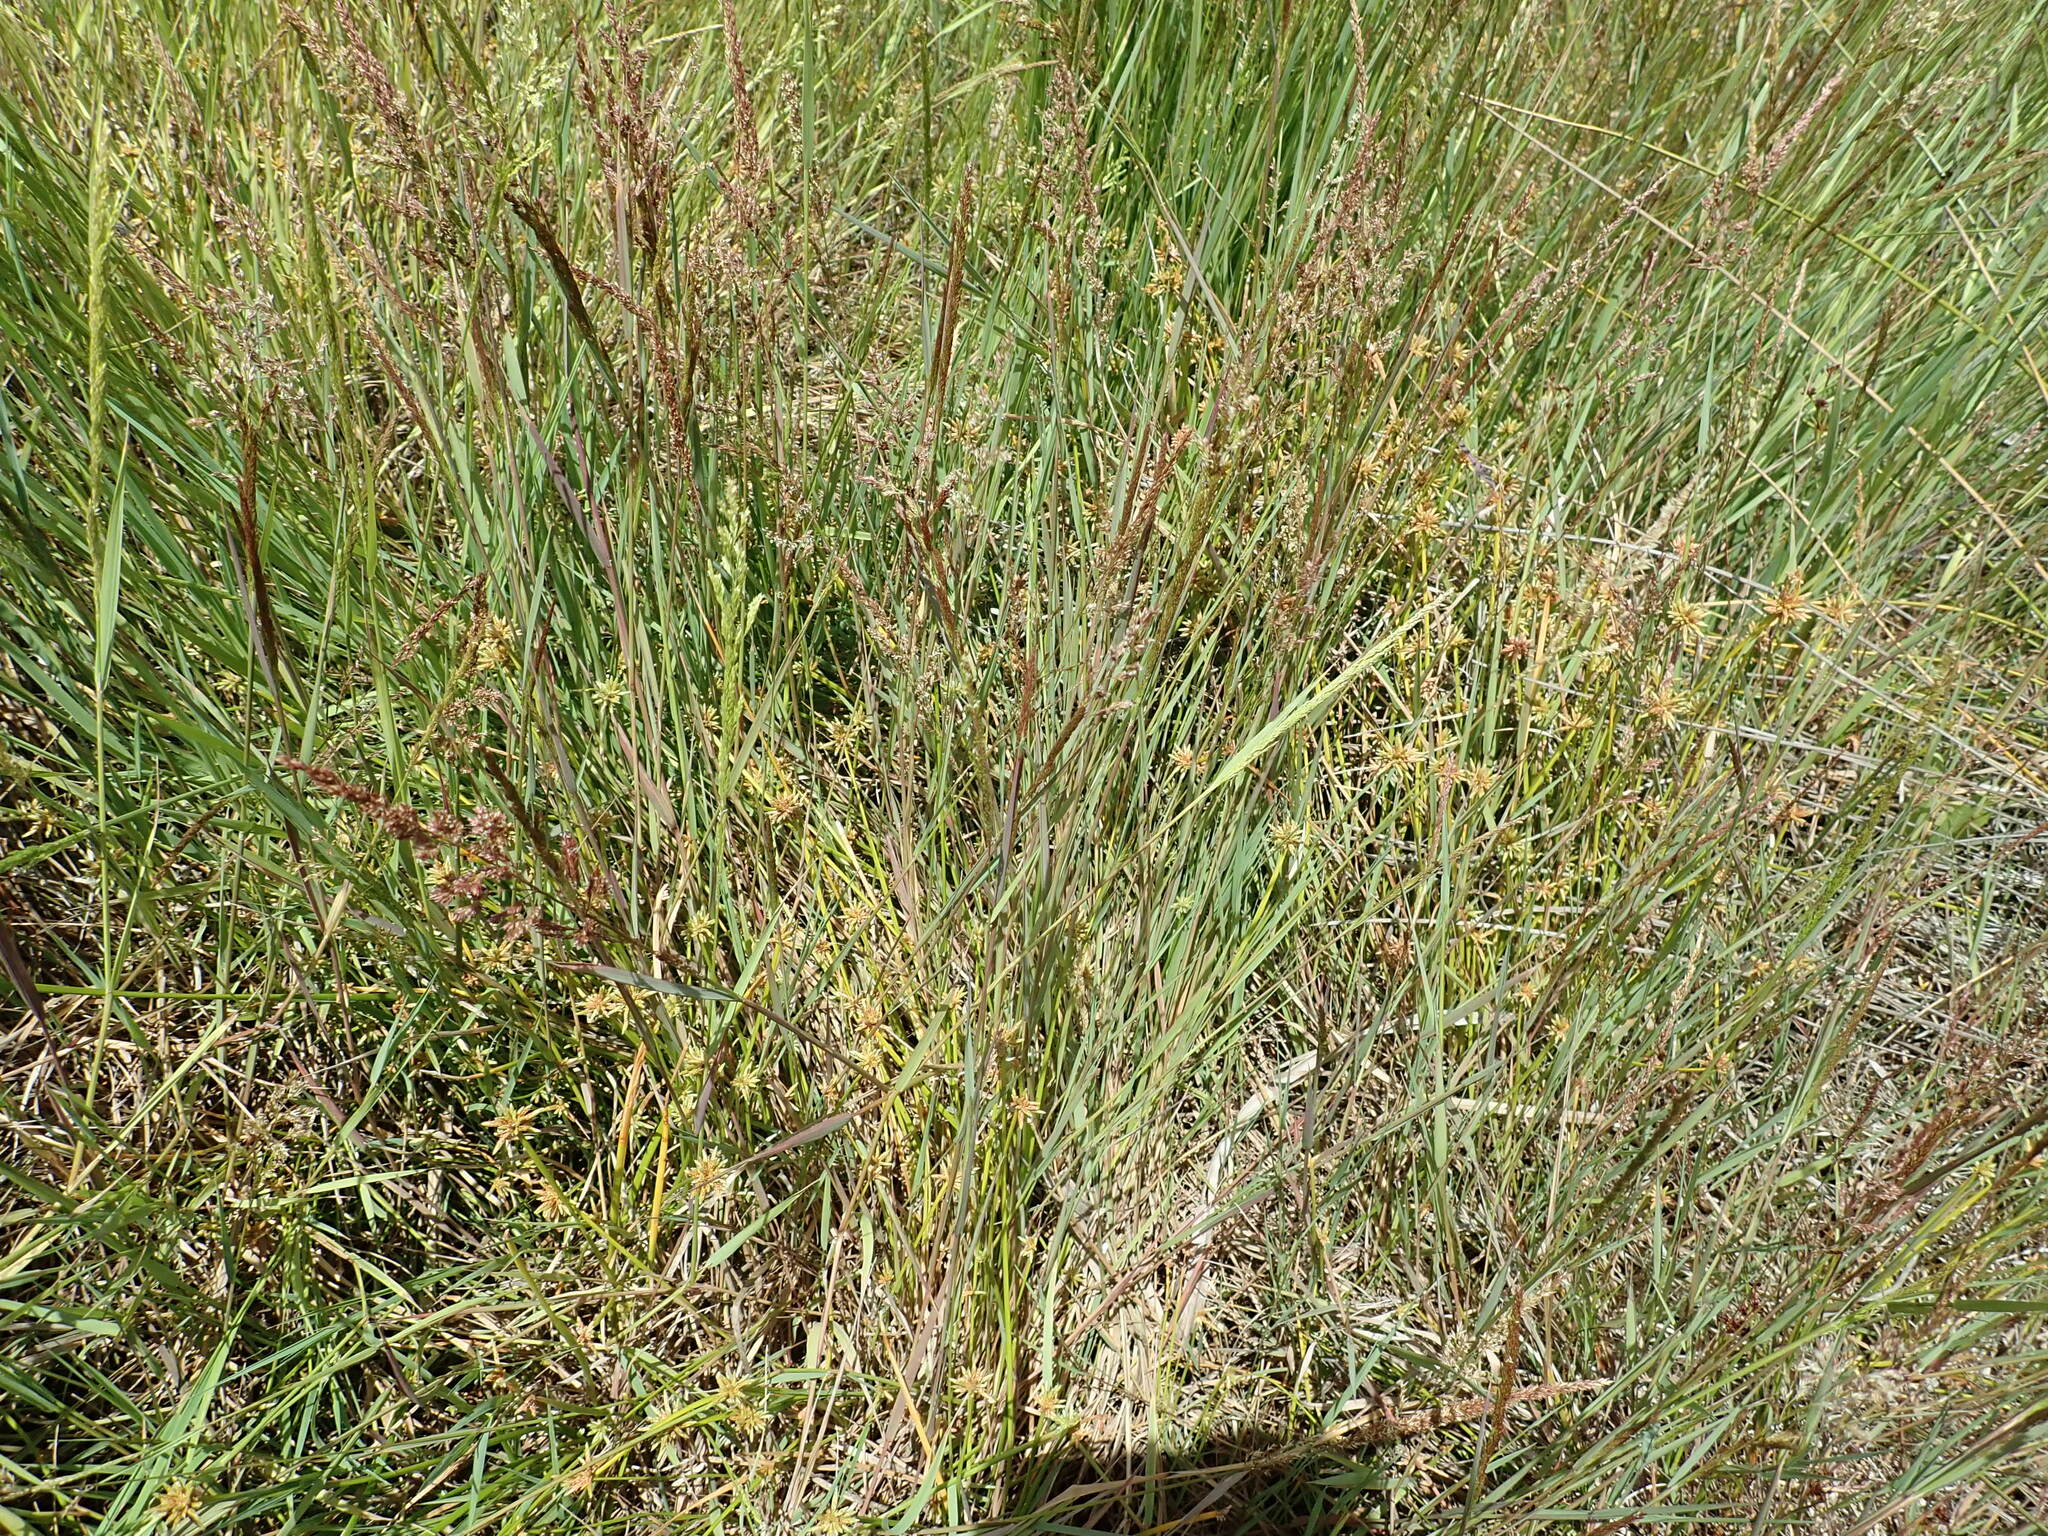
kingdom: Plantae
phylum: Tracheophyta
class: Liliopsida
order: Poales
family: Cyperaceae
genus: Isolepis
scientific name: Isolepis prolifera
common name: Proliferating bulrush
